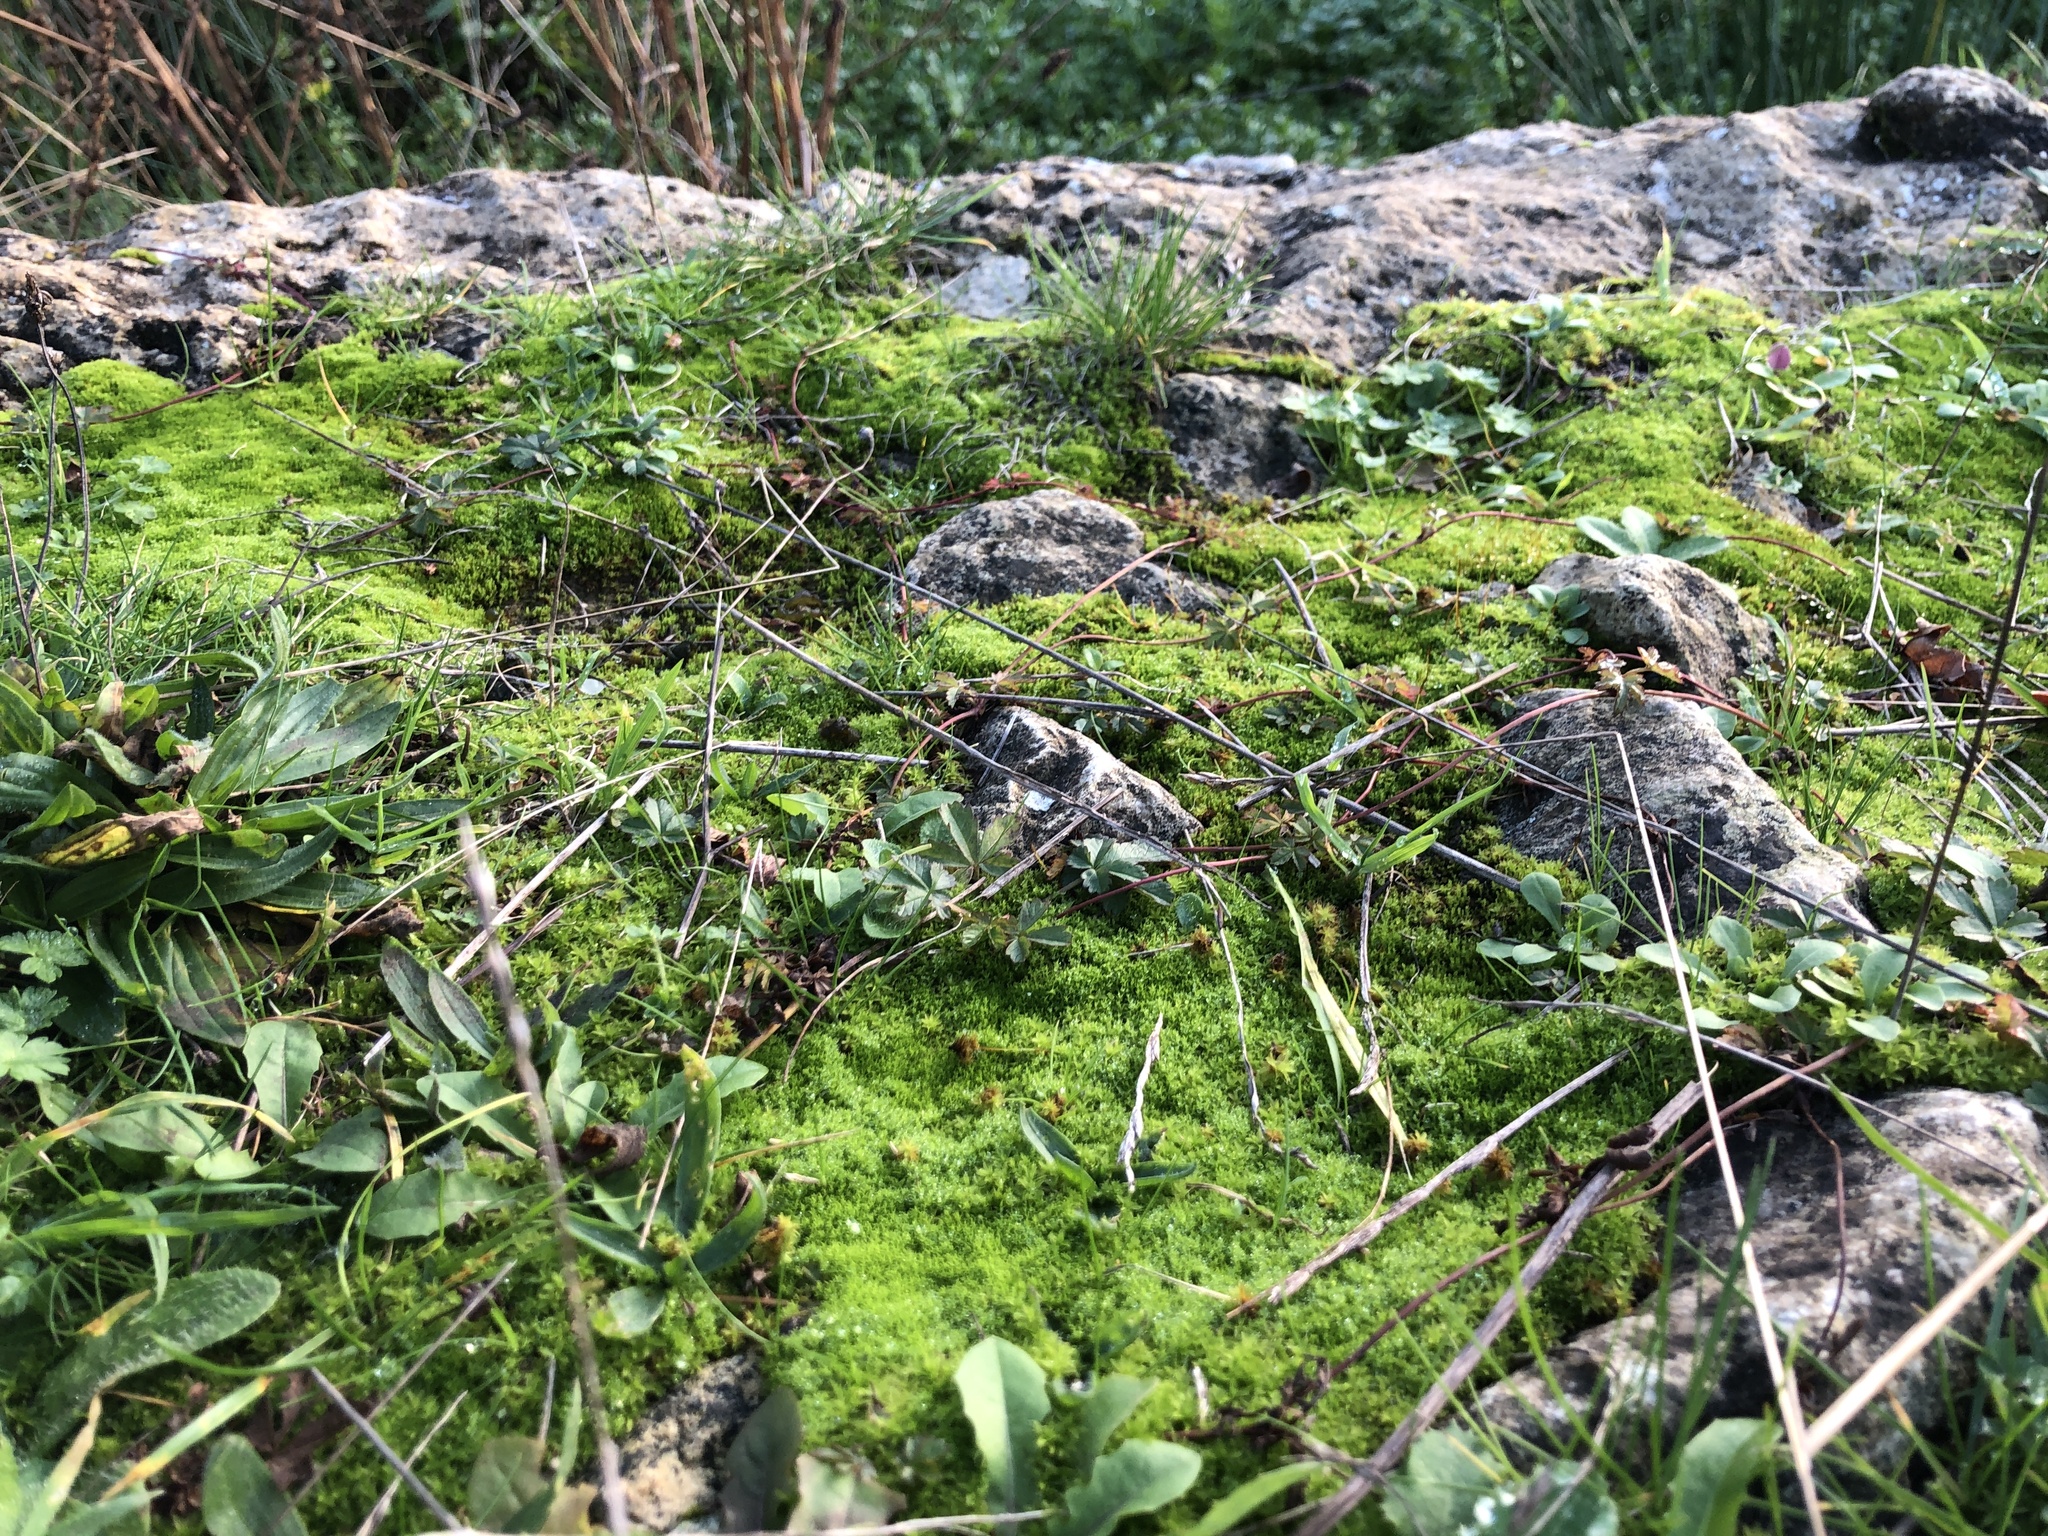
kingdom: Plantae
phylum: Bryophyta
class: Bryopsida
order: Pottiales
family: Pottiaceae
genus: Pseudocrossidium
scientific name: Pseudocrossidium hornschuchianum
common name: Hornschuch's beard-moss
